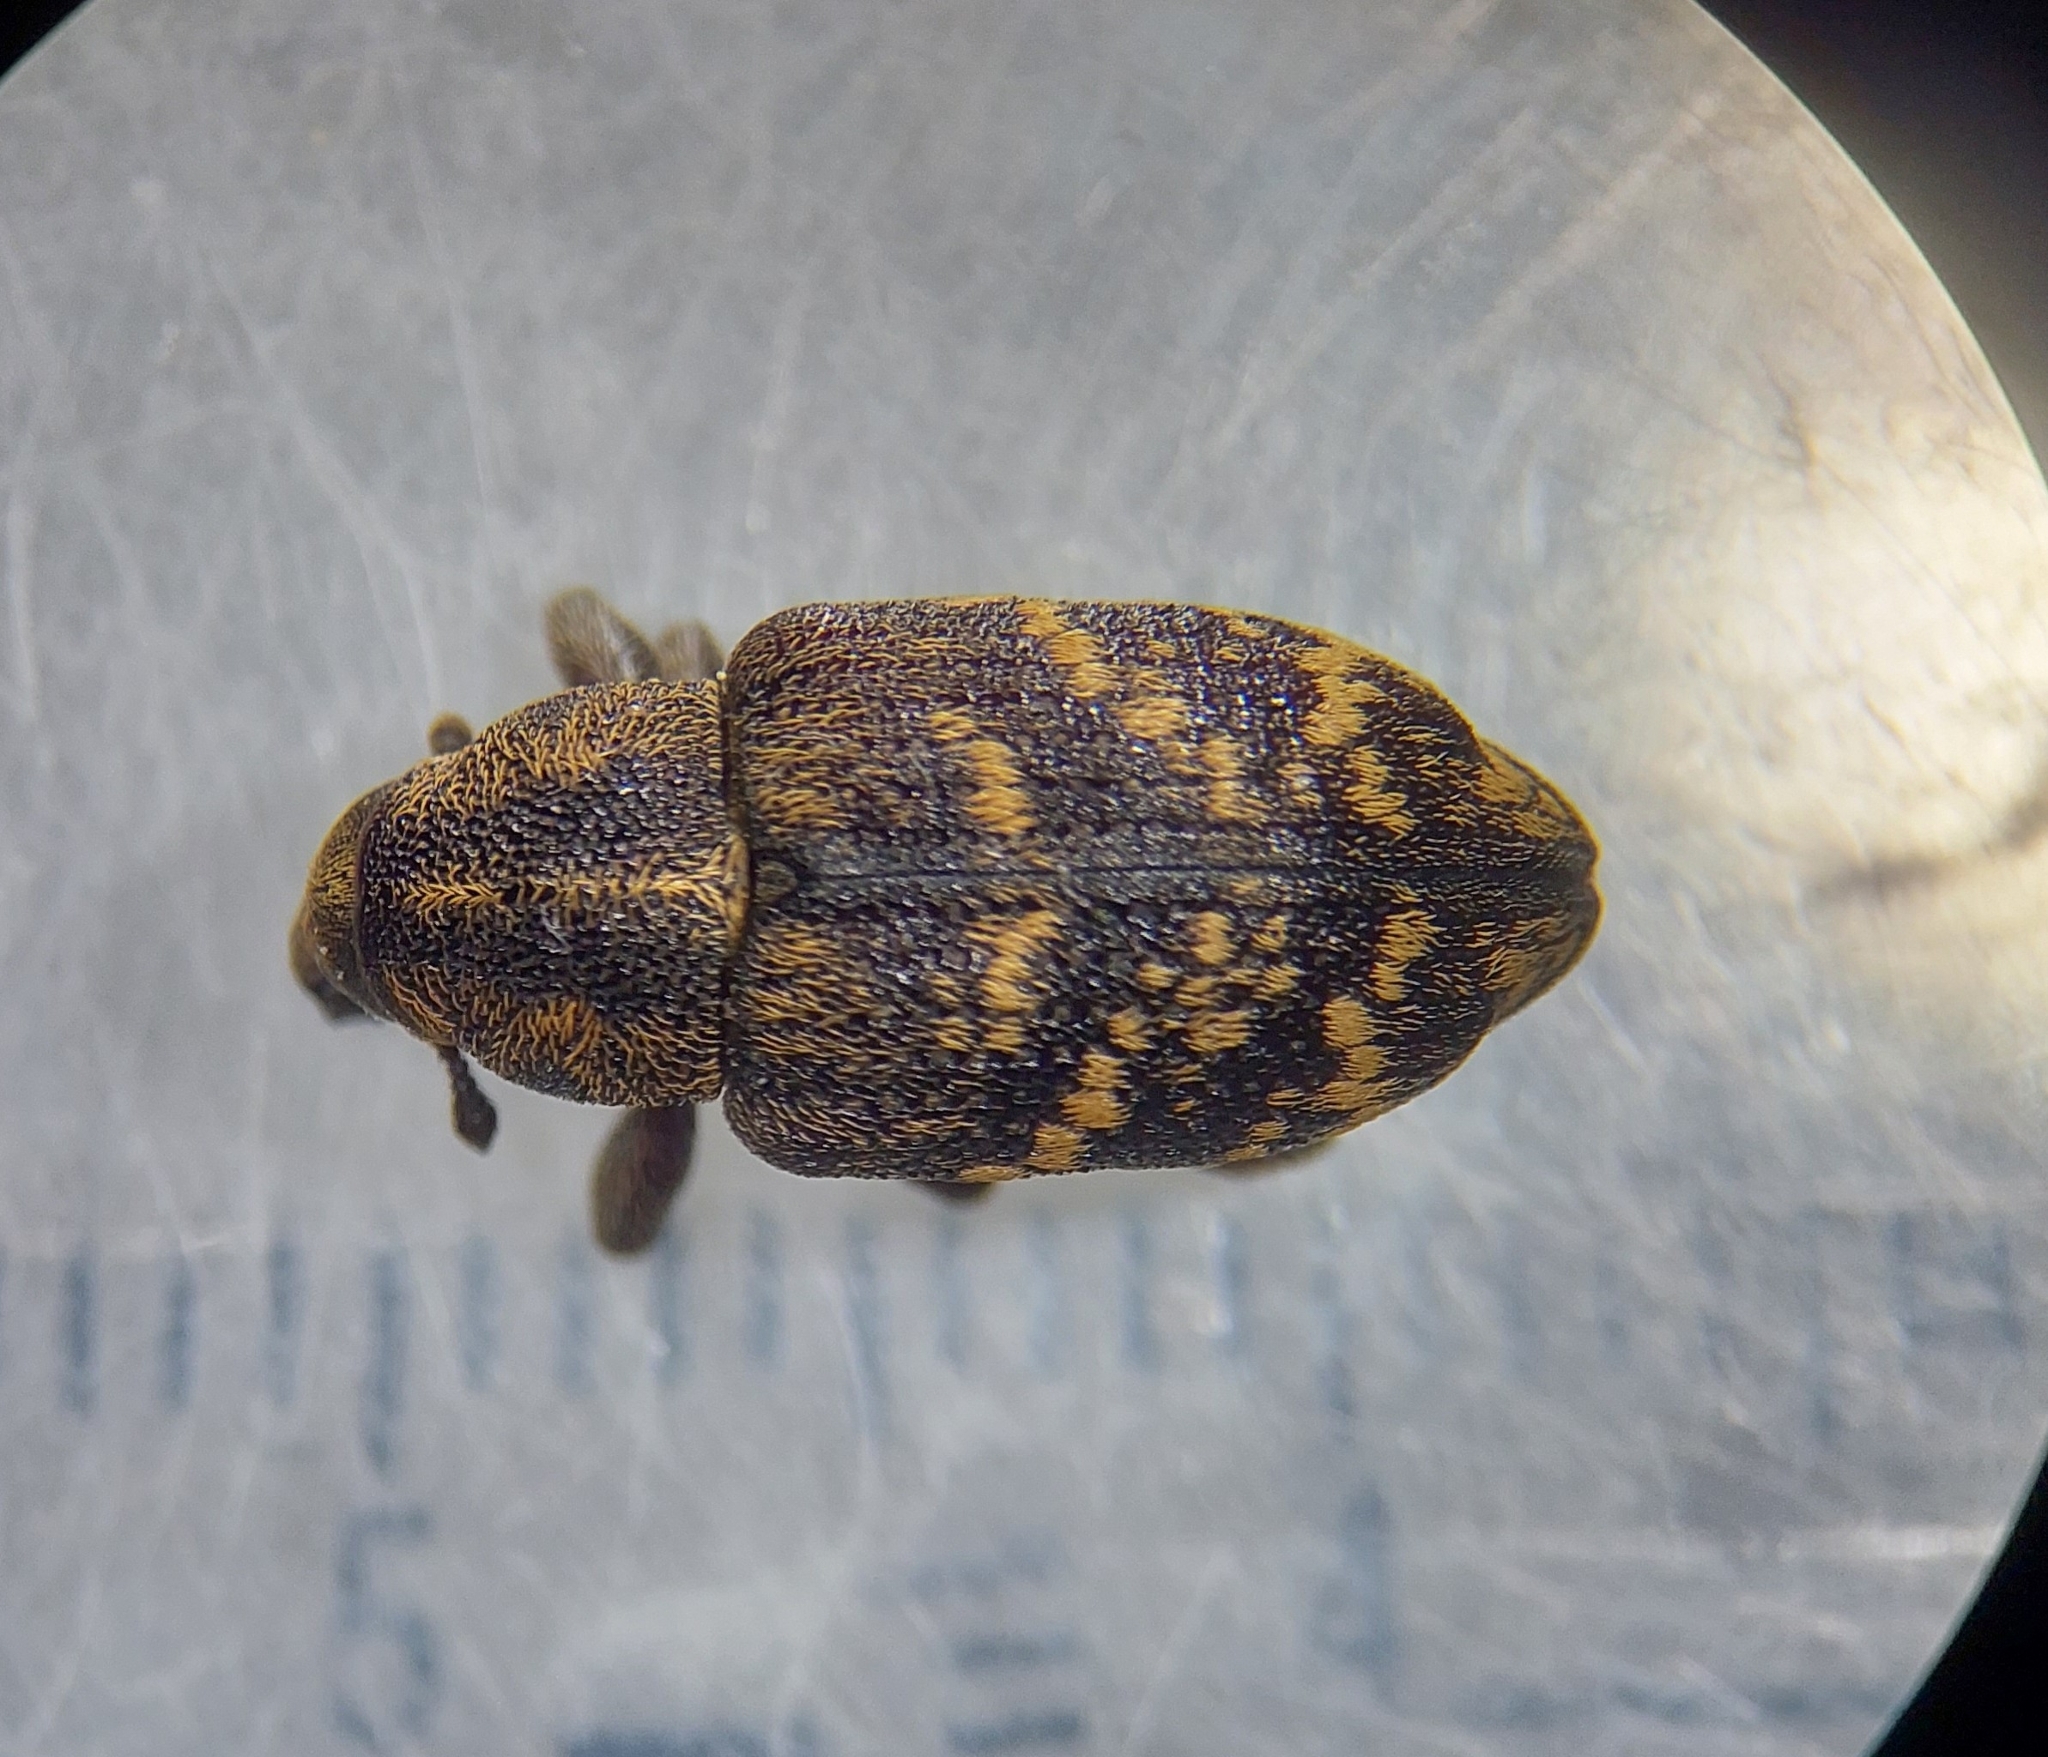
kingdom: Animalia
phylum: Arthropoda
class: Insecta
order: Coleoptera
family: Curculionidae
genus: Hylobius
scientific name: Hylobius abietis
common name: Large pine weevil
